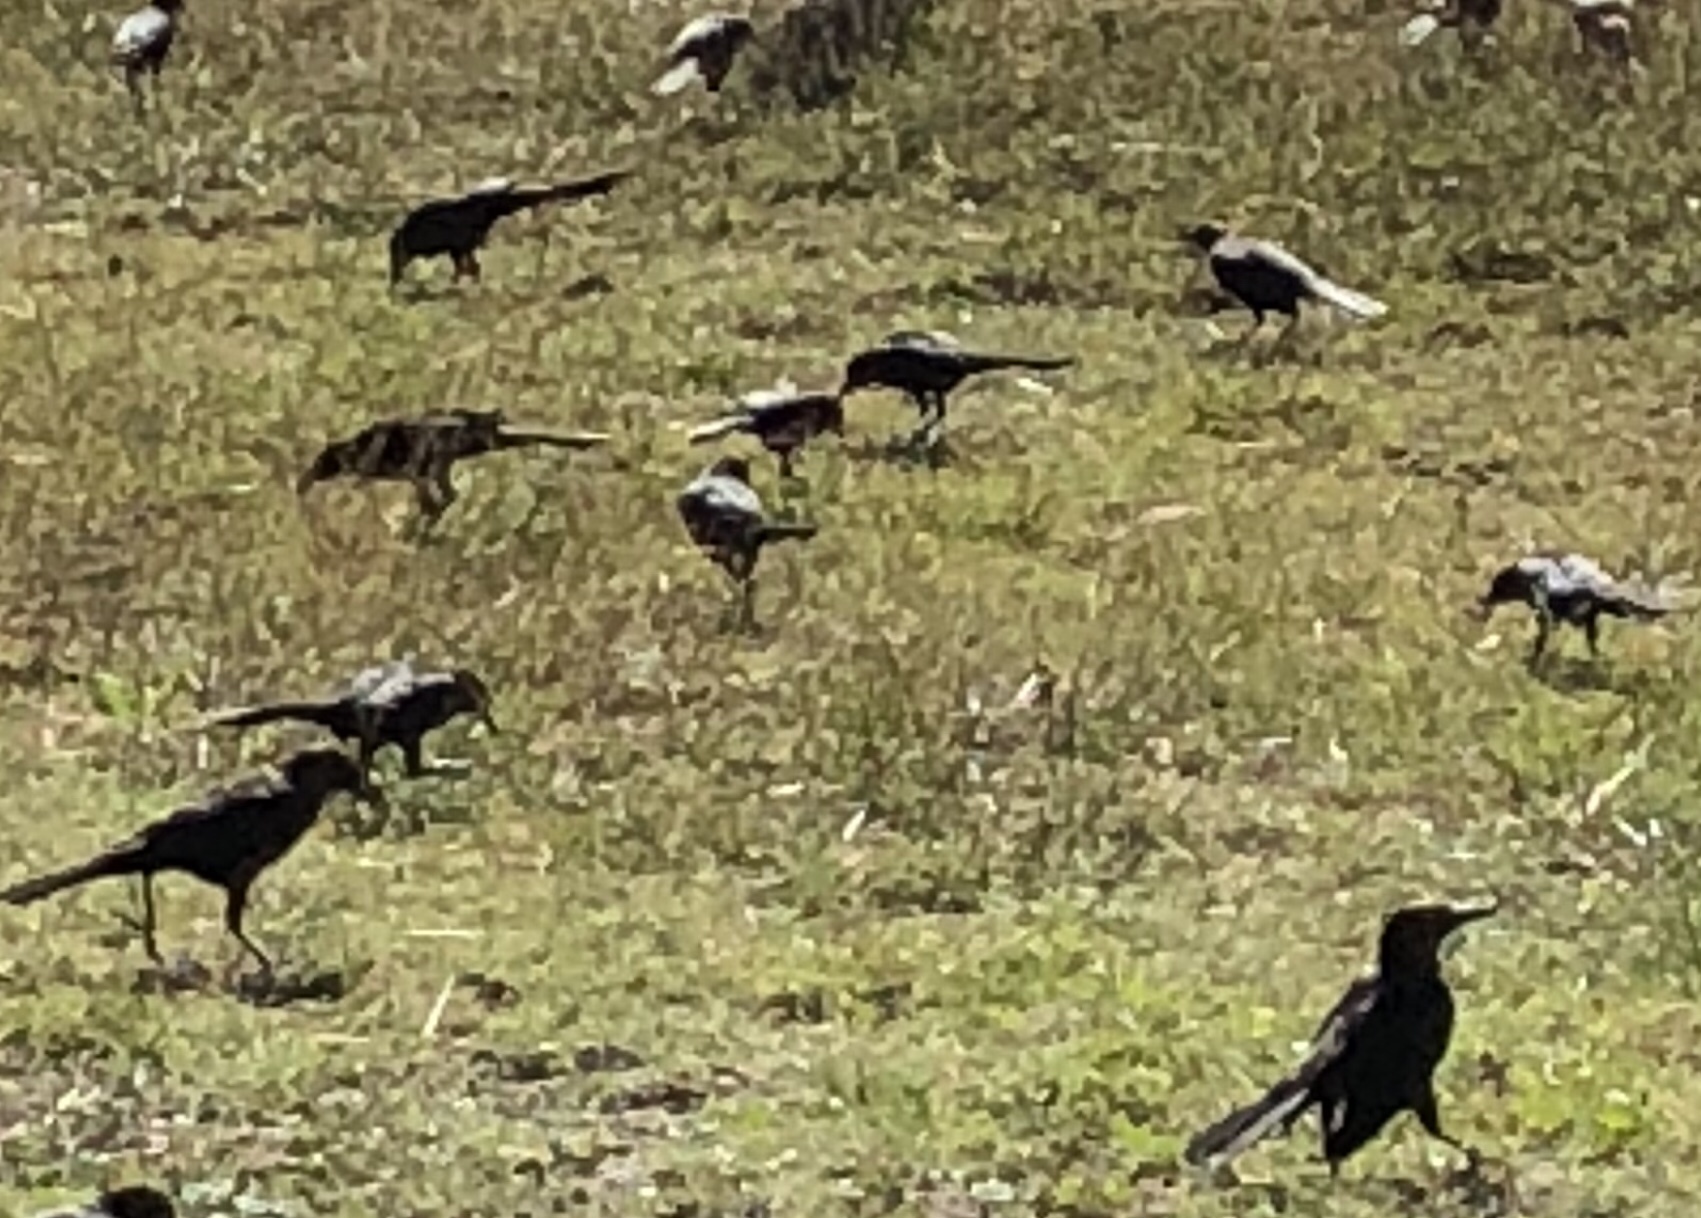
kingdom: Animalia
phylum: Chordata
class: Aves
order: Passeriformes
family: Icteridae
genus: Quiscalus
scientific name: Quiscalus mexicanus
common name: Great-tailed grackle
